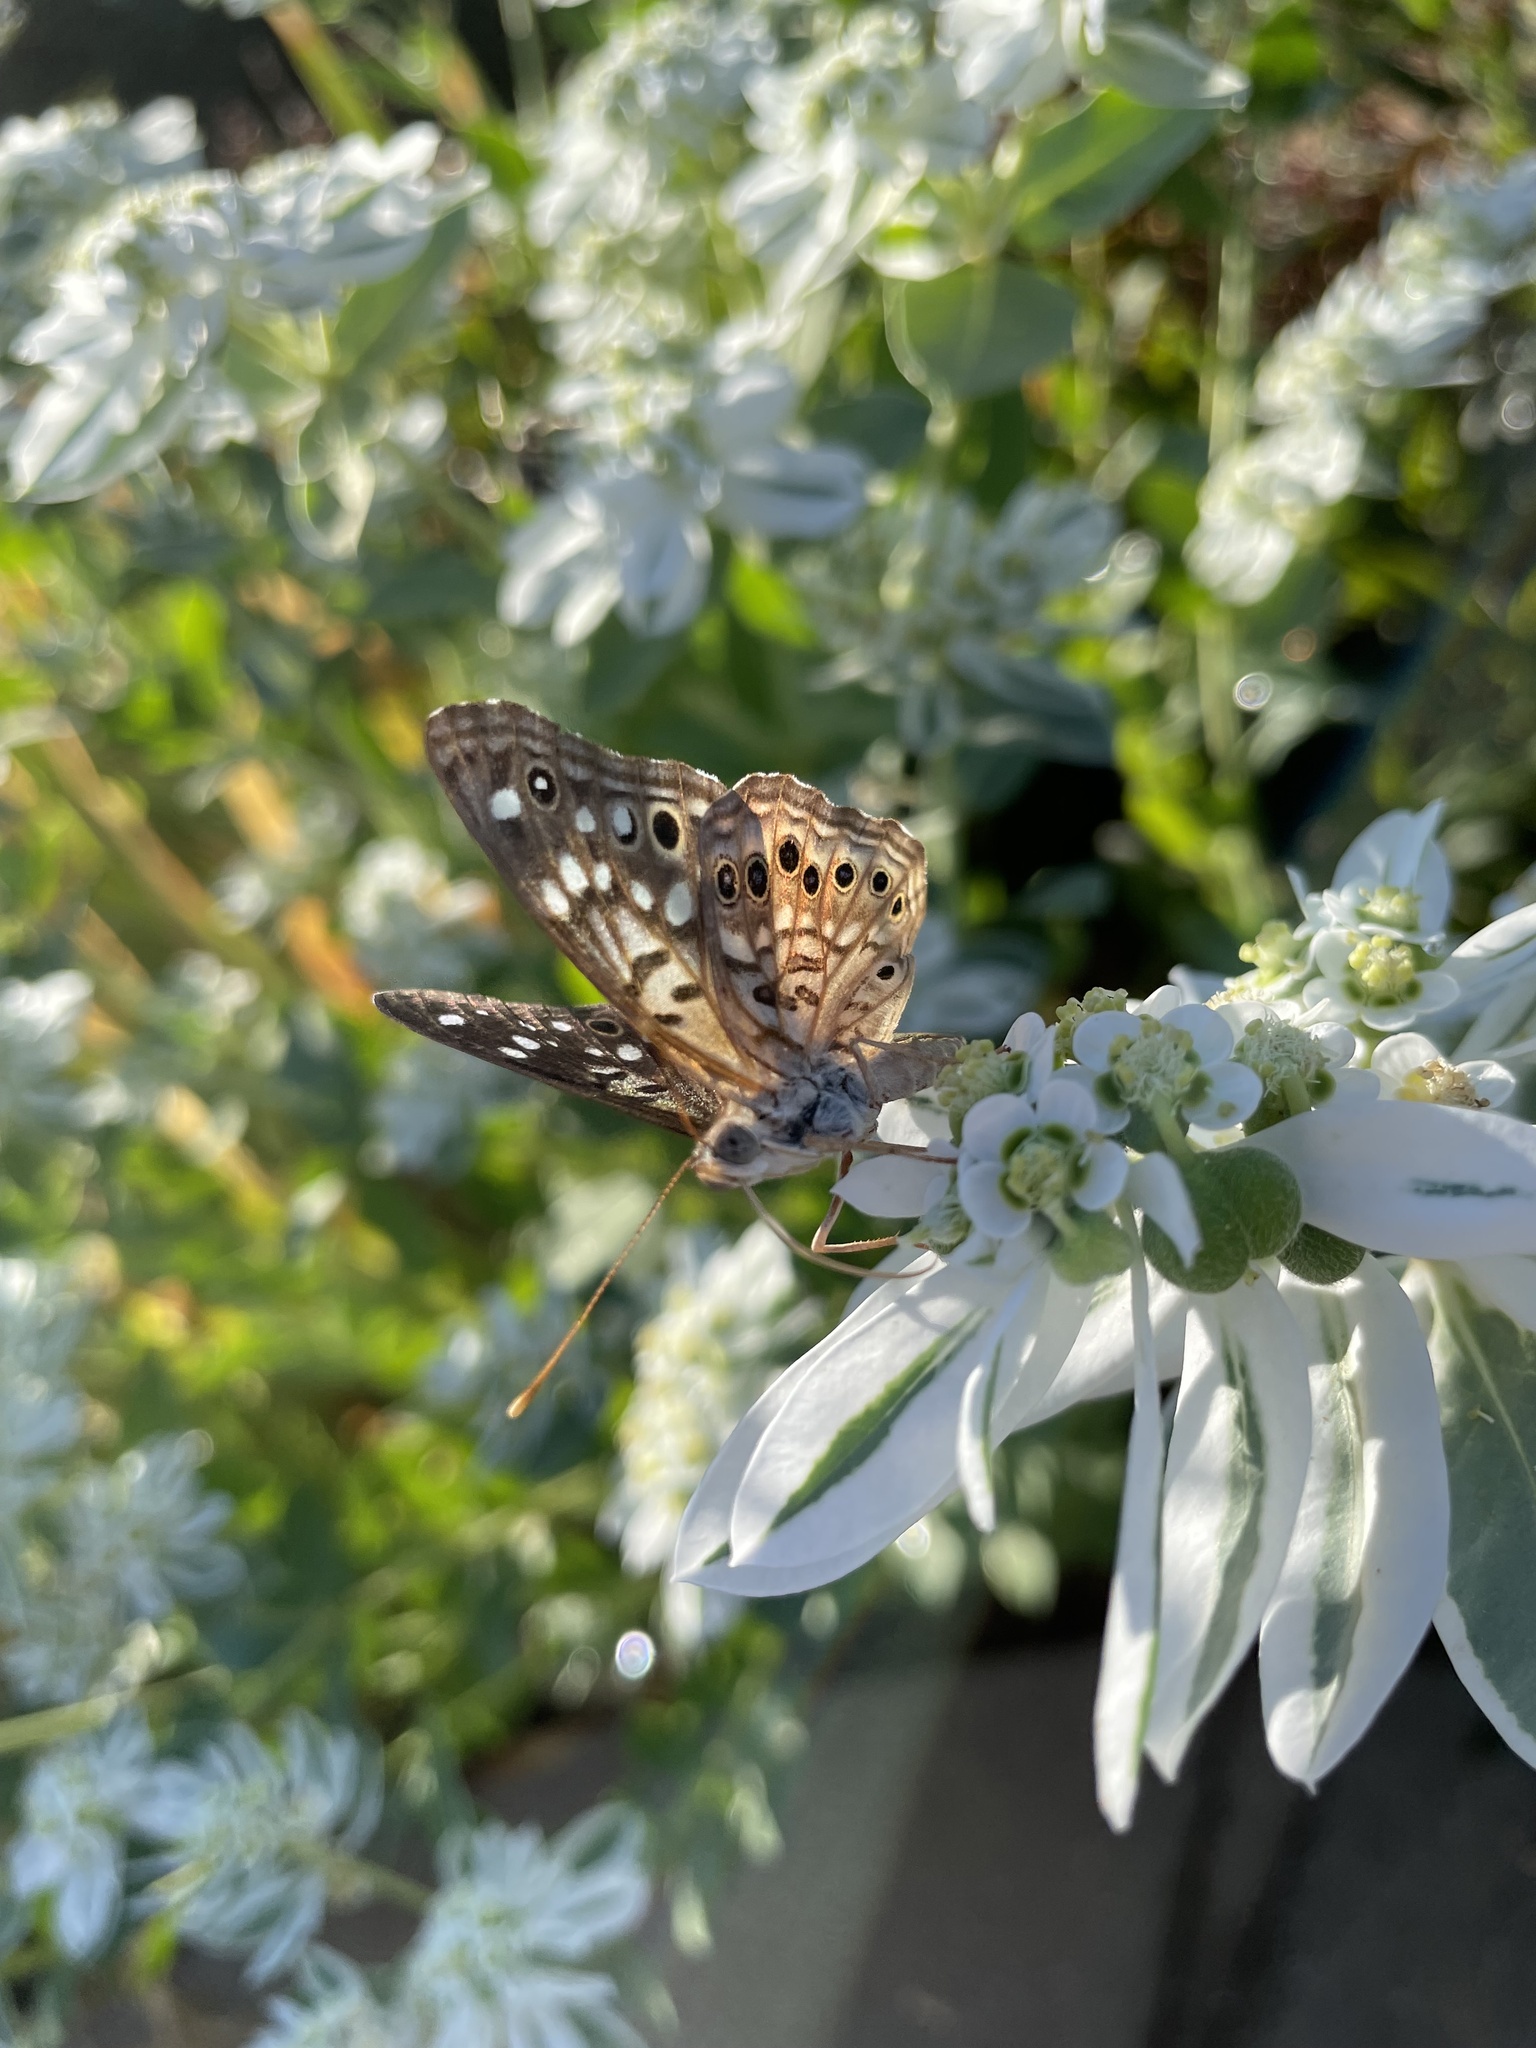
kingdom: Animalia
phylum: Arthropoda
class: Insecta
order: Lepidoptera
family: Nymphalidae
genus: Asterocampa
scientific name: Asterocampa celtis
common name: Hackberry emperor
